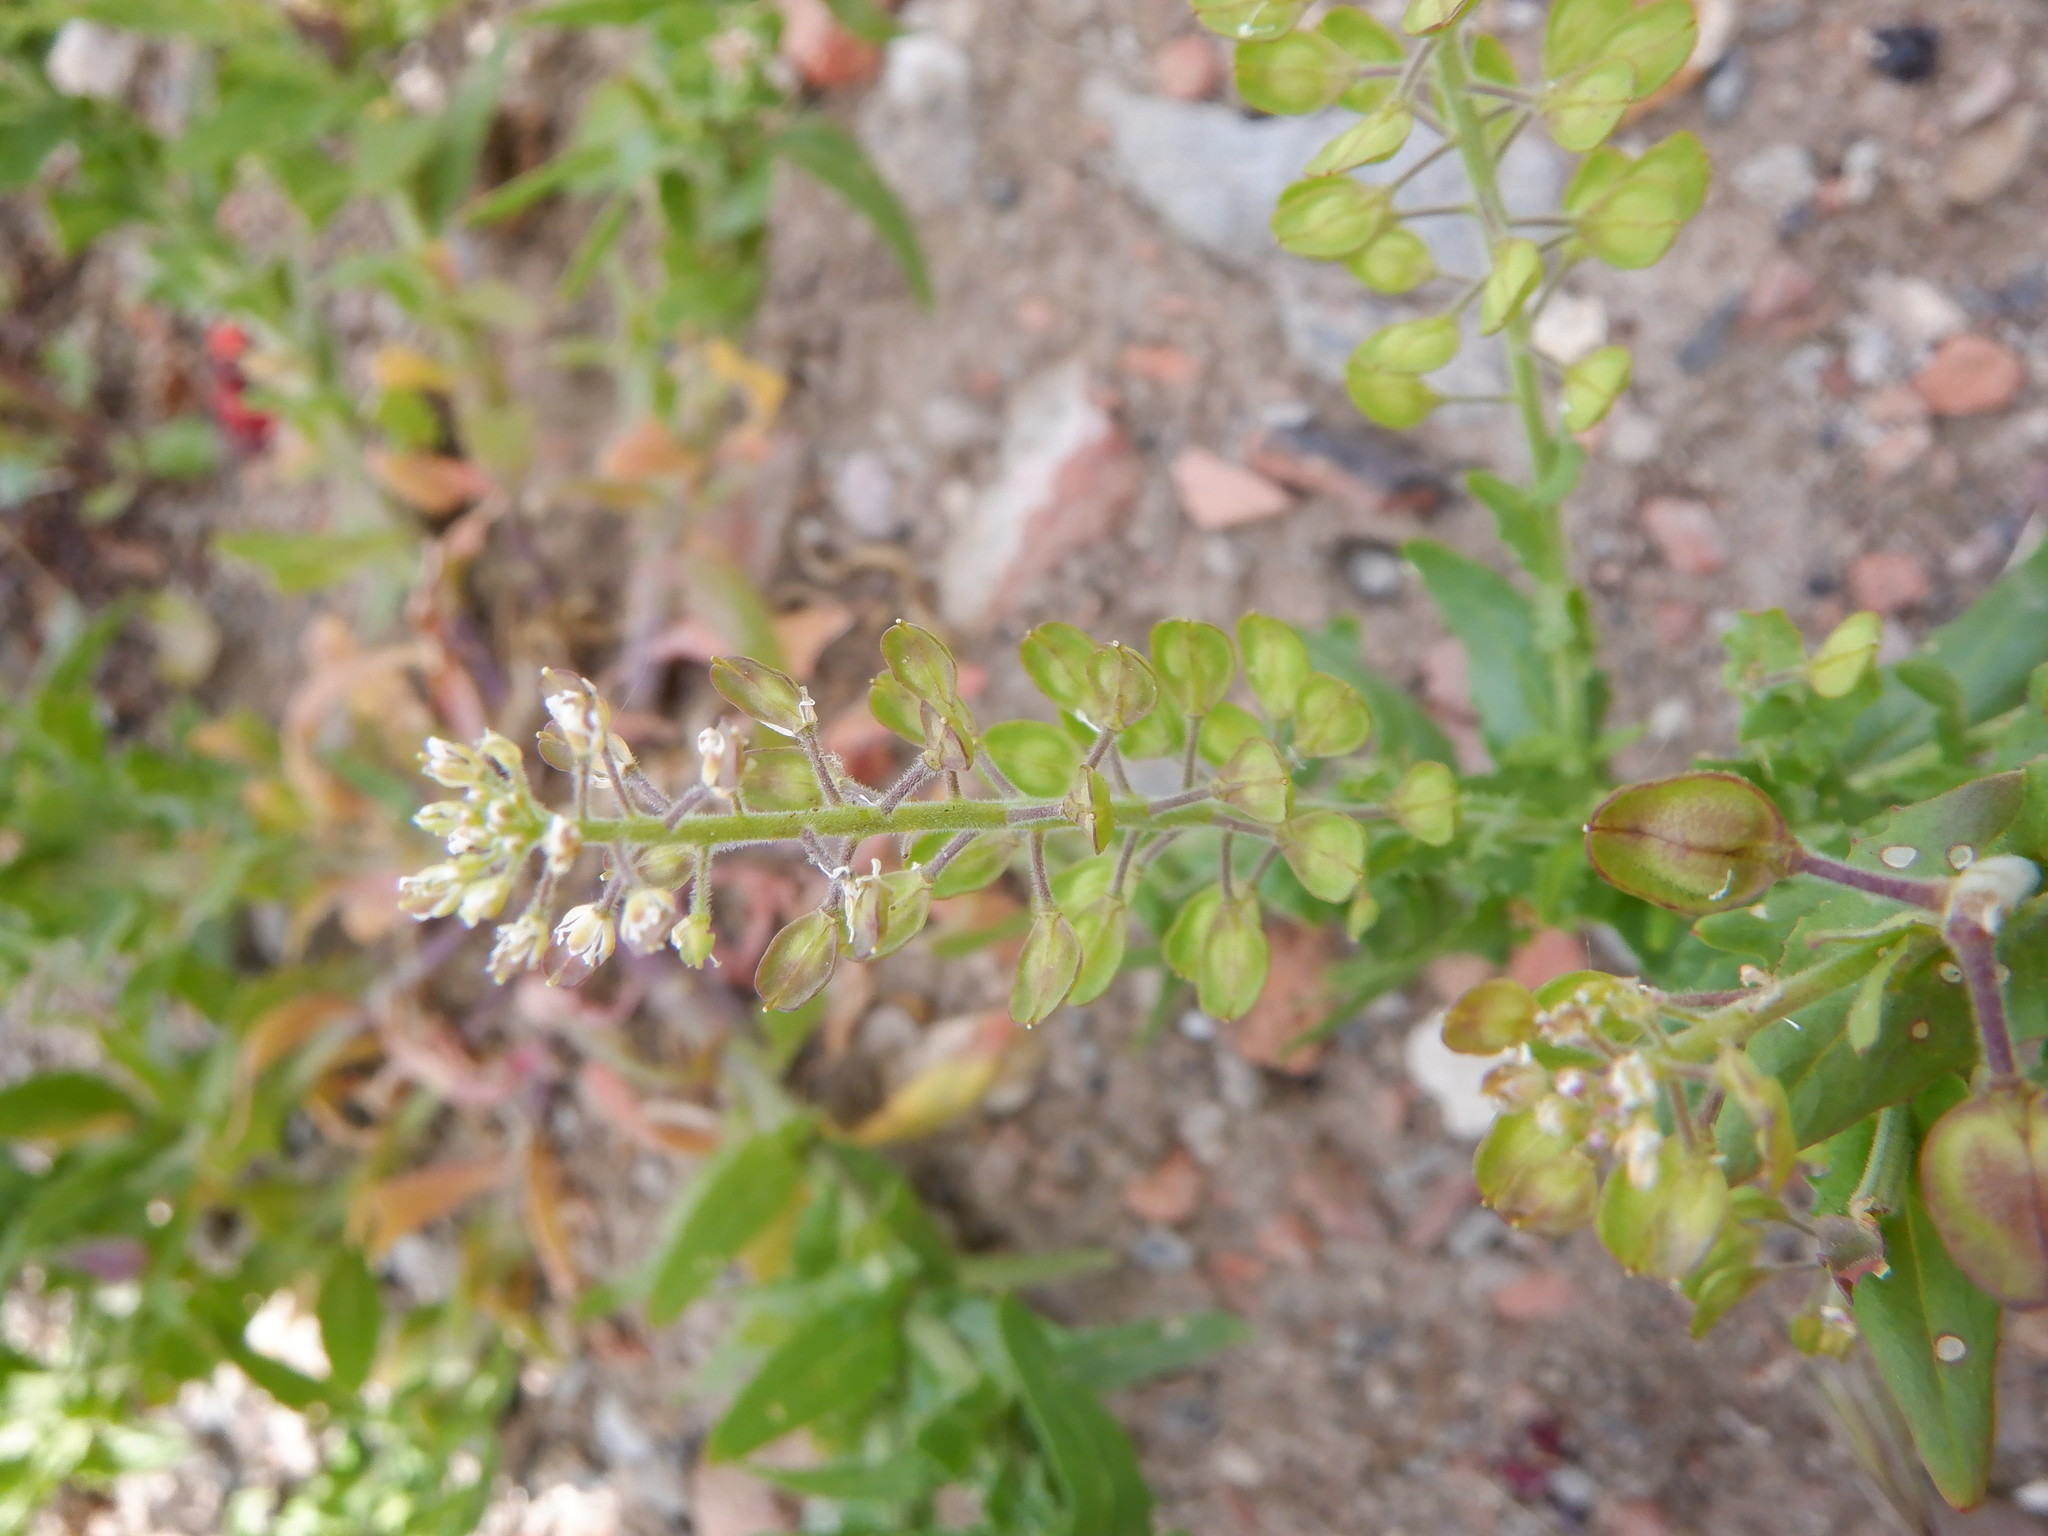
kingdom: Plantae
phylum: Tracheophyta
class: Magnoliopsida
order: Brassicales
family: Brassicaceae
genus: Lepidium
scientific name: Lepidium campestre
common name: Field pepperwort
